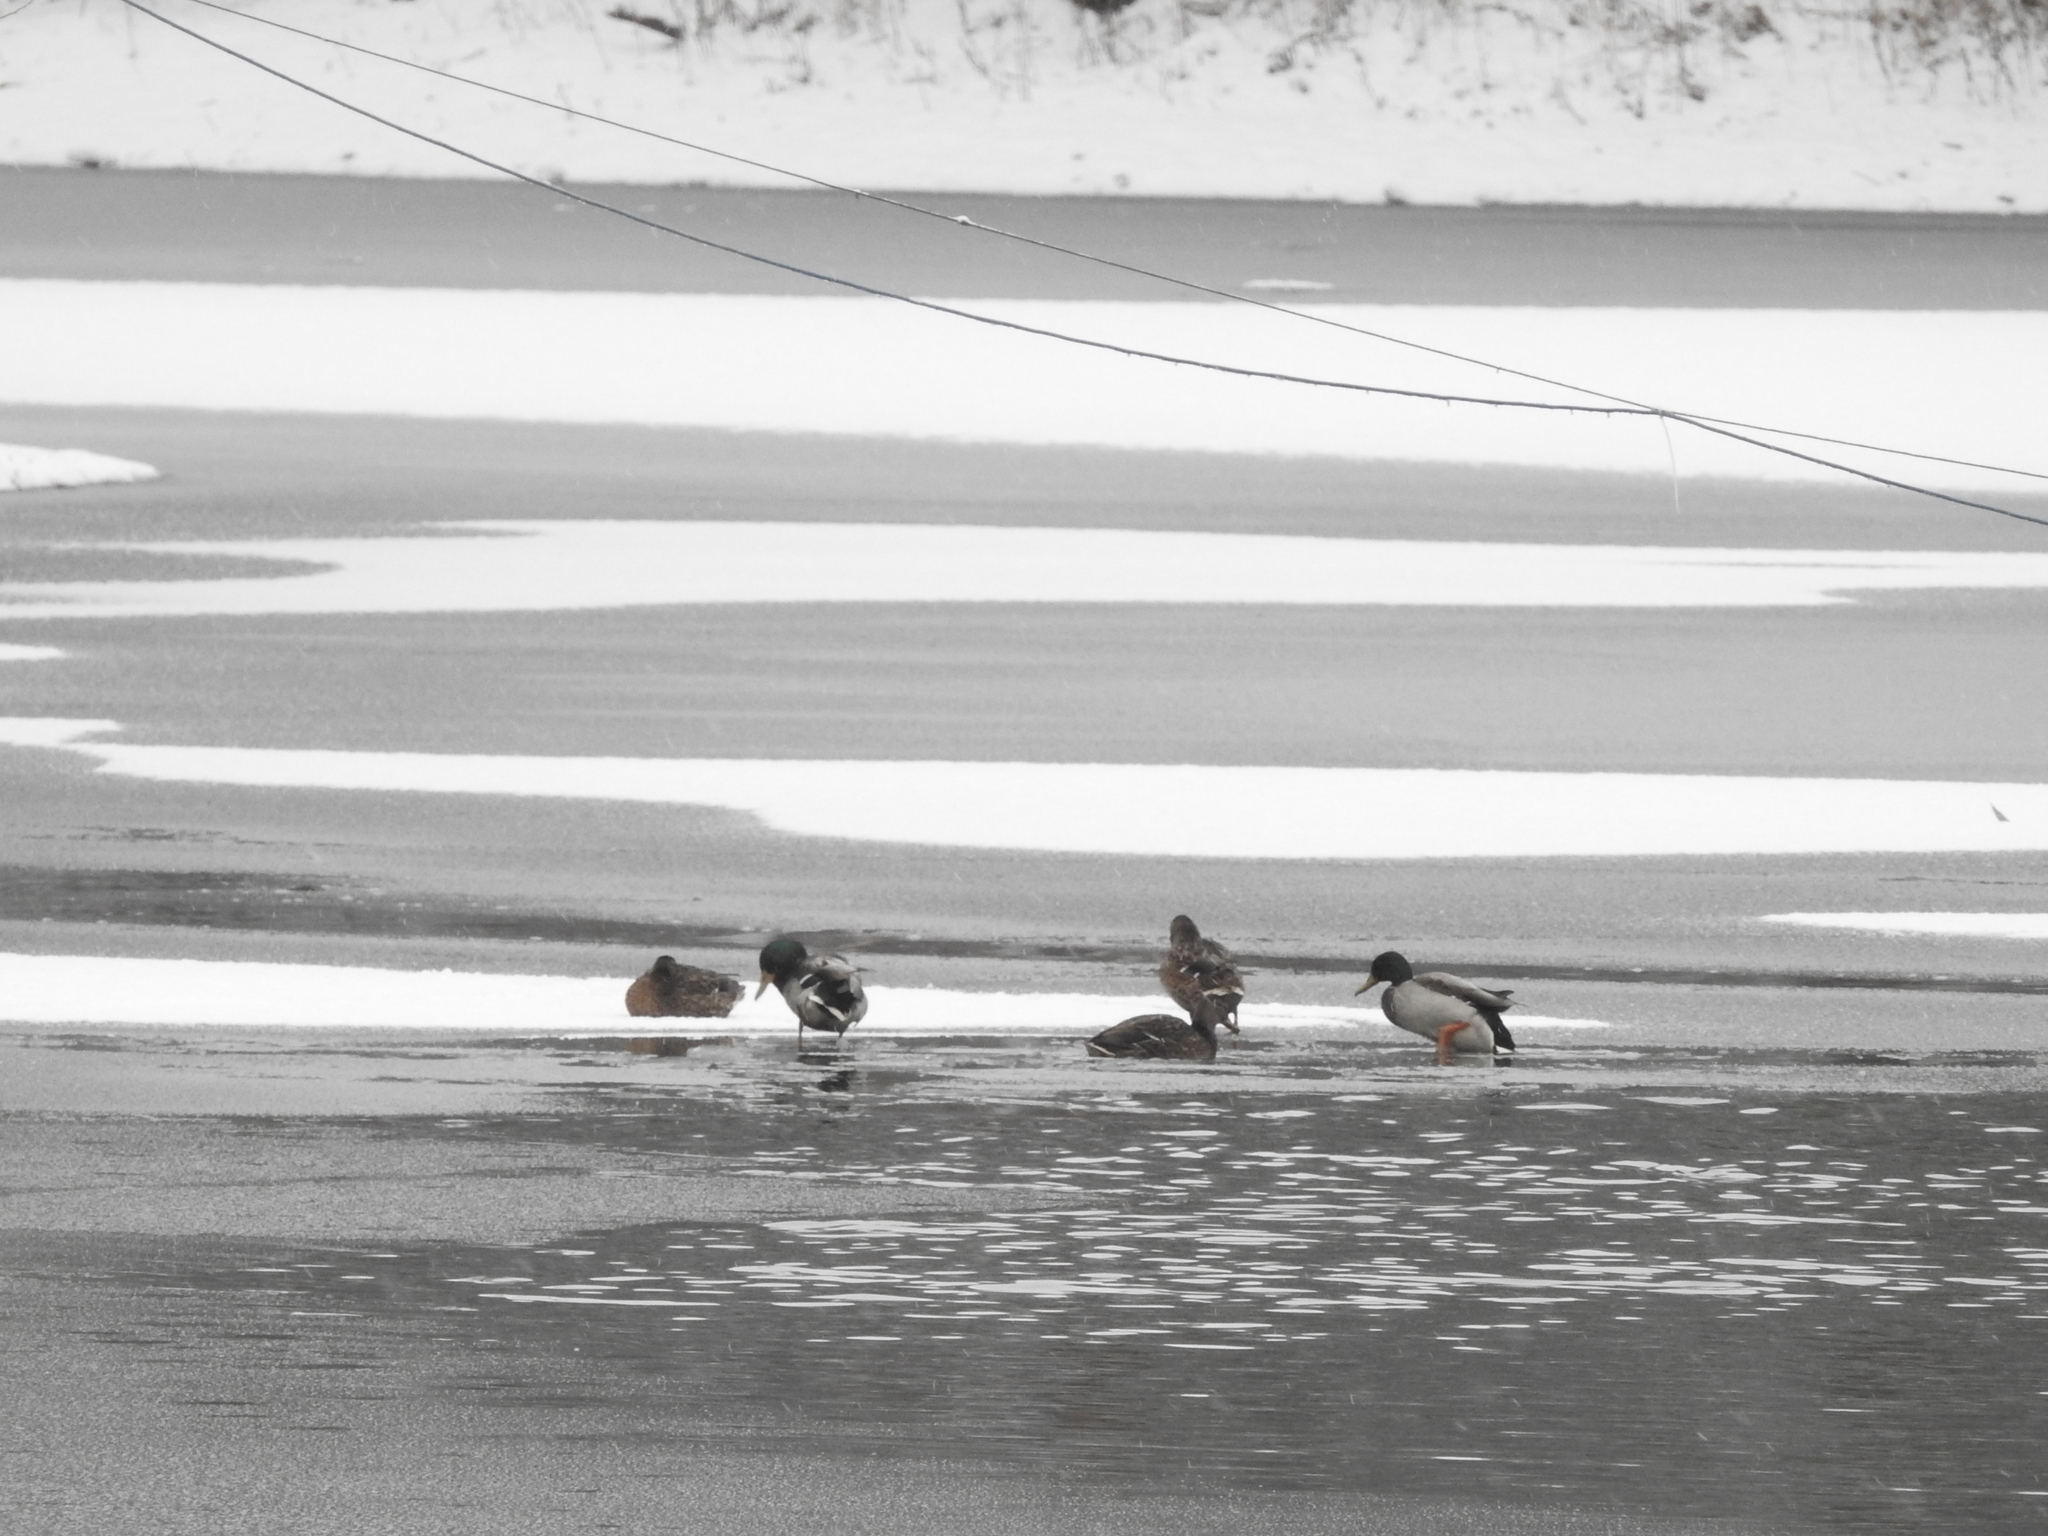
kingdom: Animalia
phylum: Chordata
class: Aves
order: Anseriformes
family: Anatidae
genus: Anas
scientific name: Anas platyrhynchos
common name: Mallard
